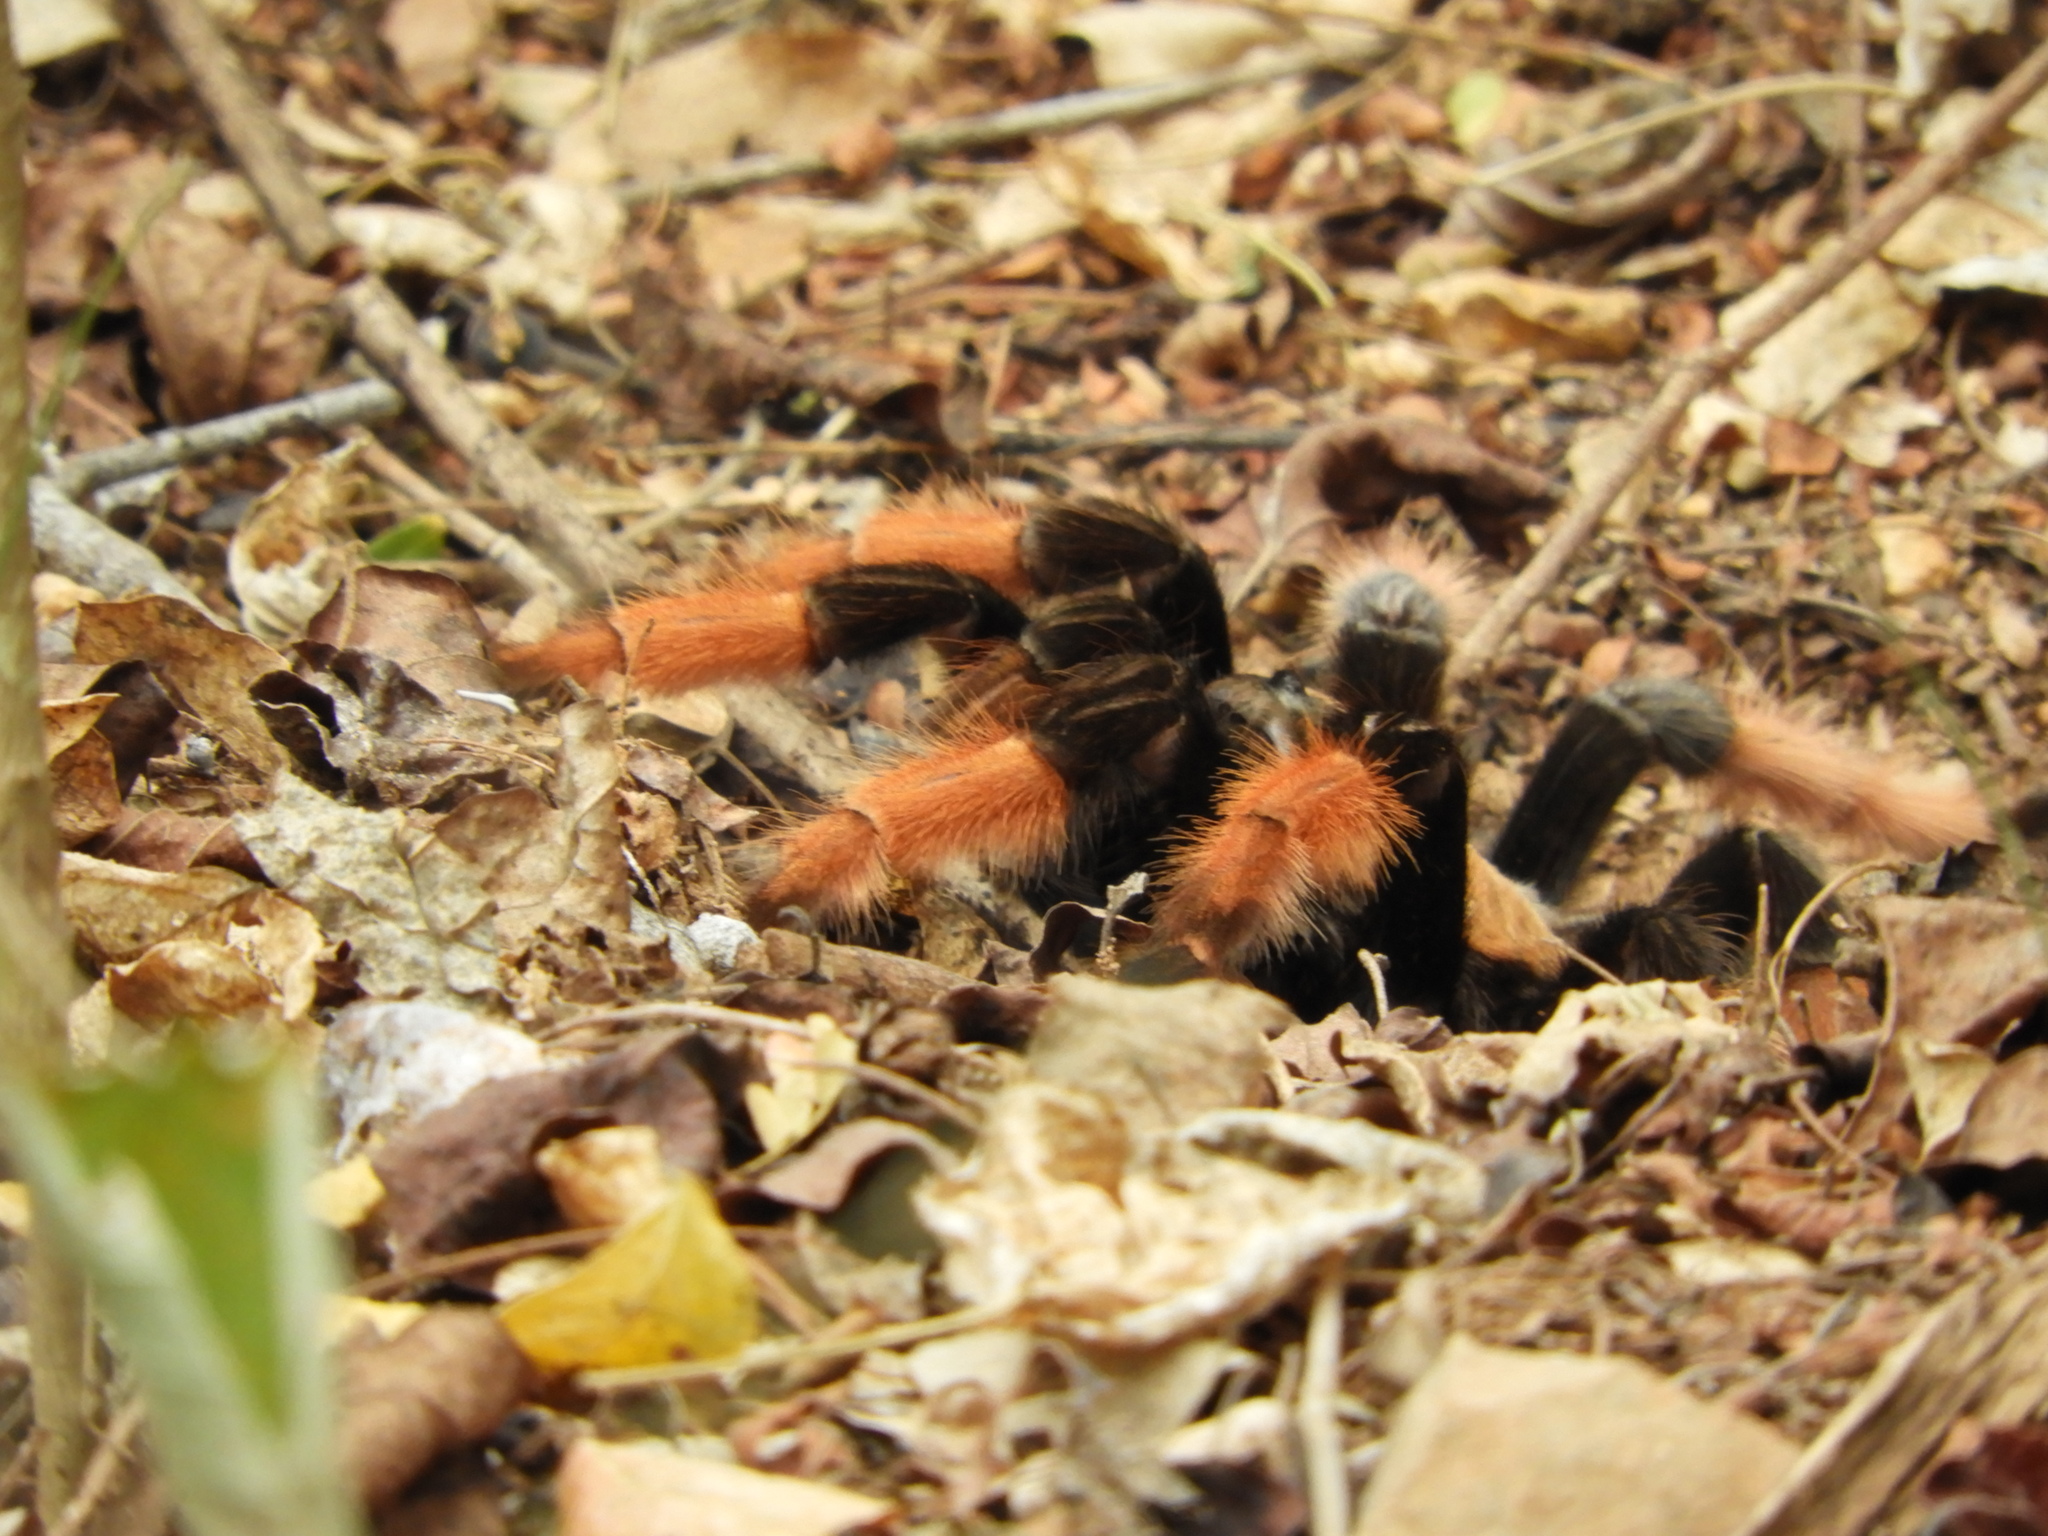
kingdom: Animalia
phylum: Arthropoda
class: Arachnida
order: Araneae
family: Theraphosidae
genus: Brachypelma
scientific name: Brachypelma emilia
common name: Mexican redleg
